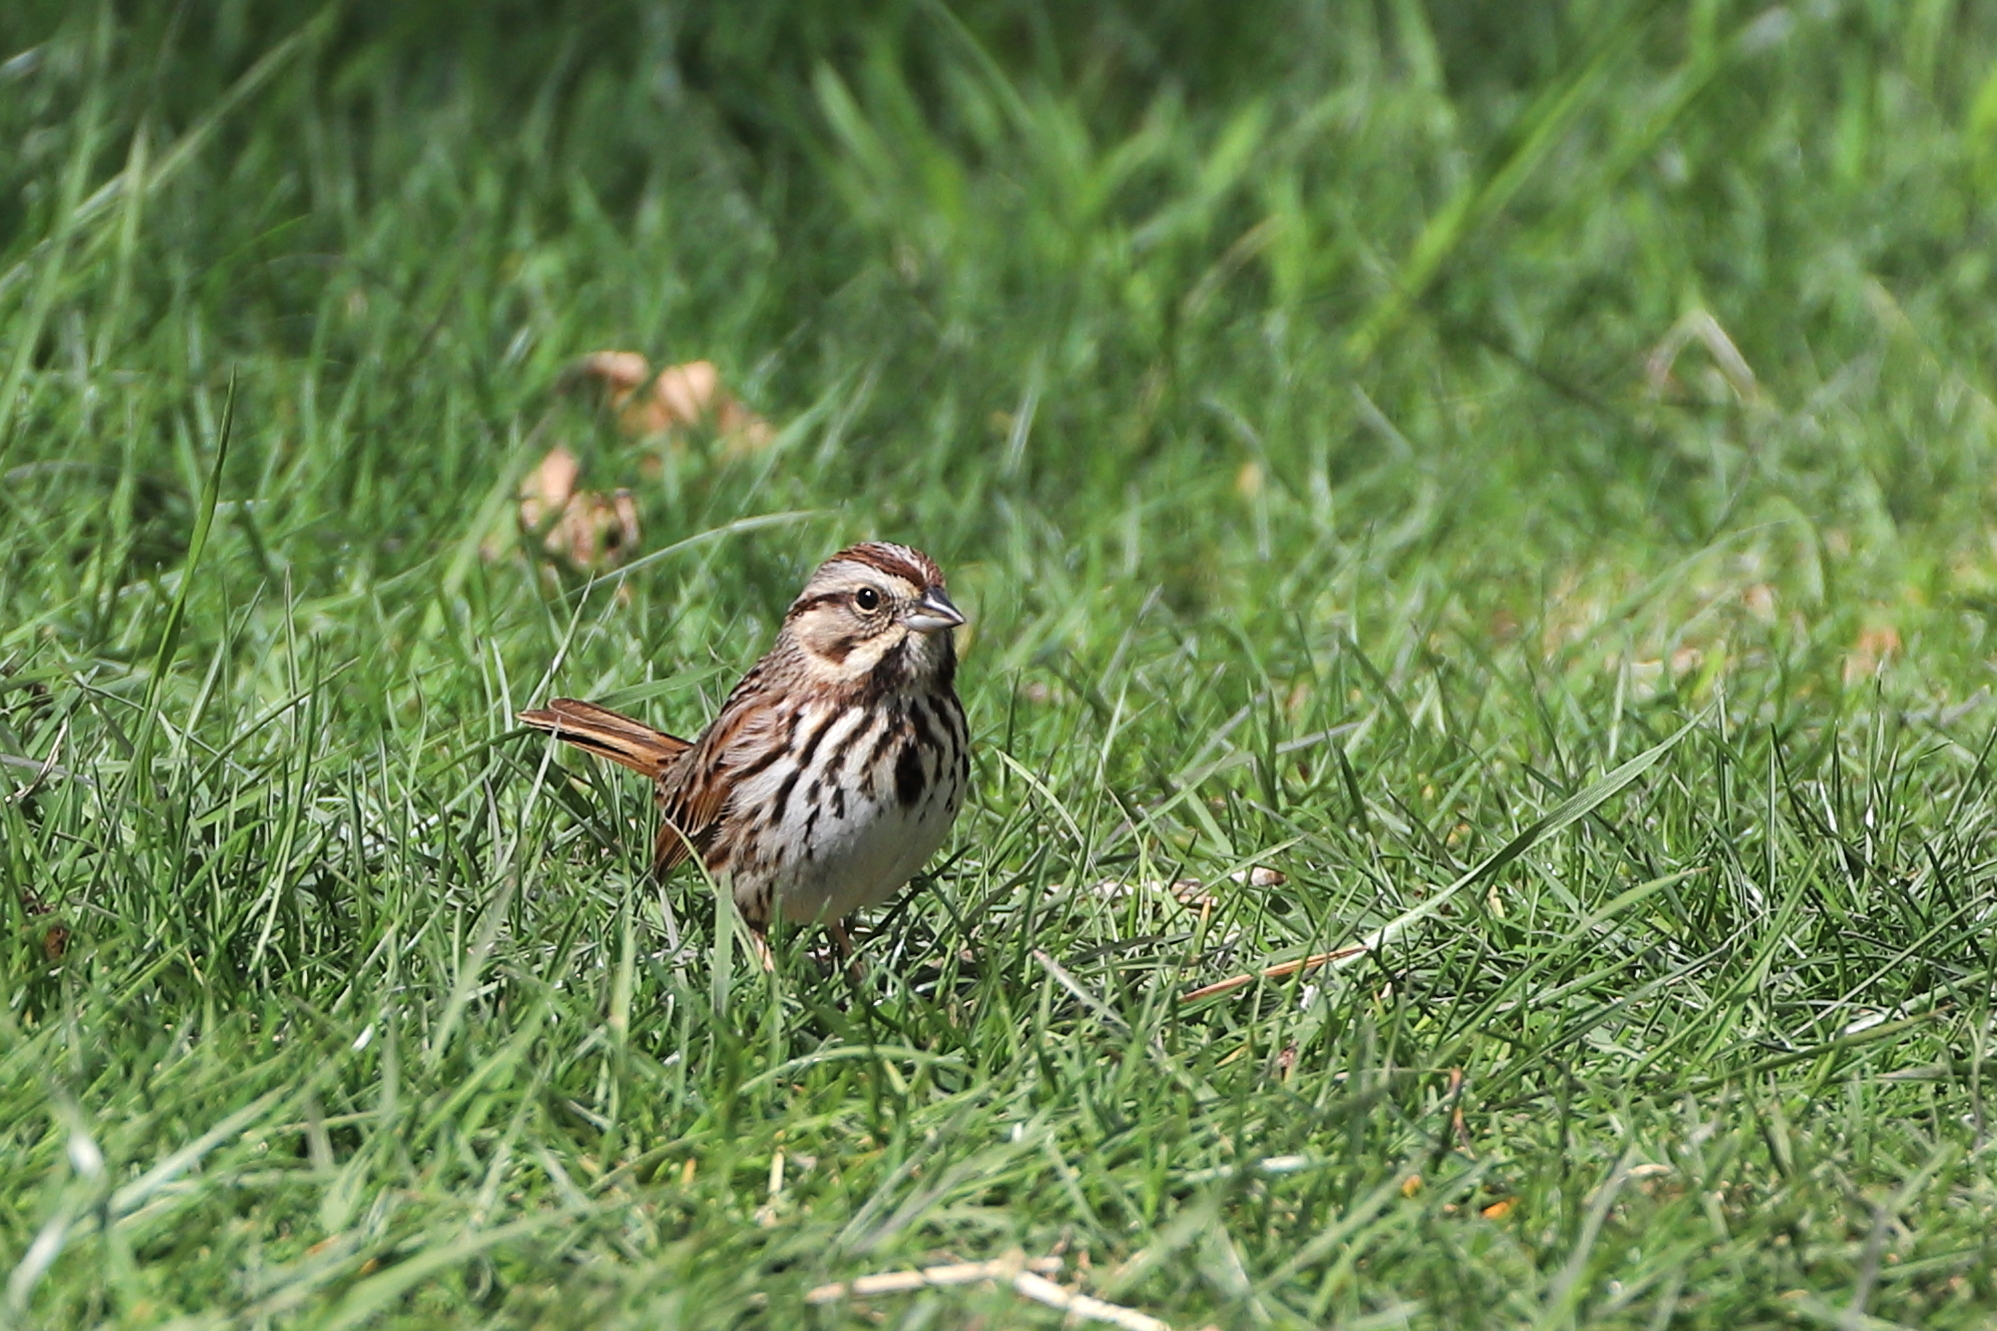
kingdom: Animalia
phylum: Chordata
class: Aves
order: Passeriformes
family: Passerellidae
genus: Melospiza
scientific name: Melospiza melodia
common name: Song sparrow
